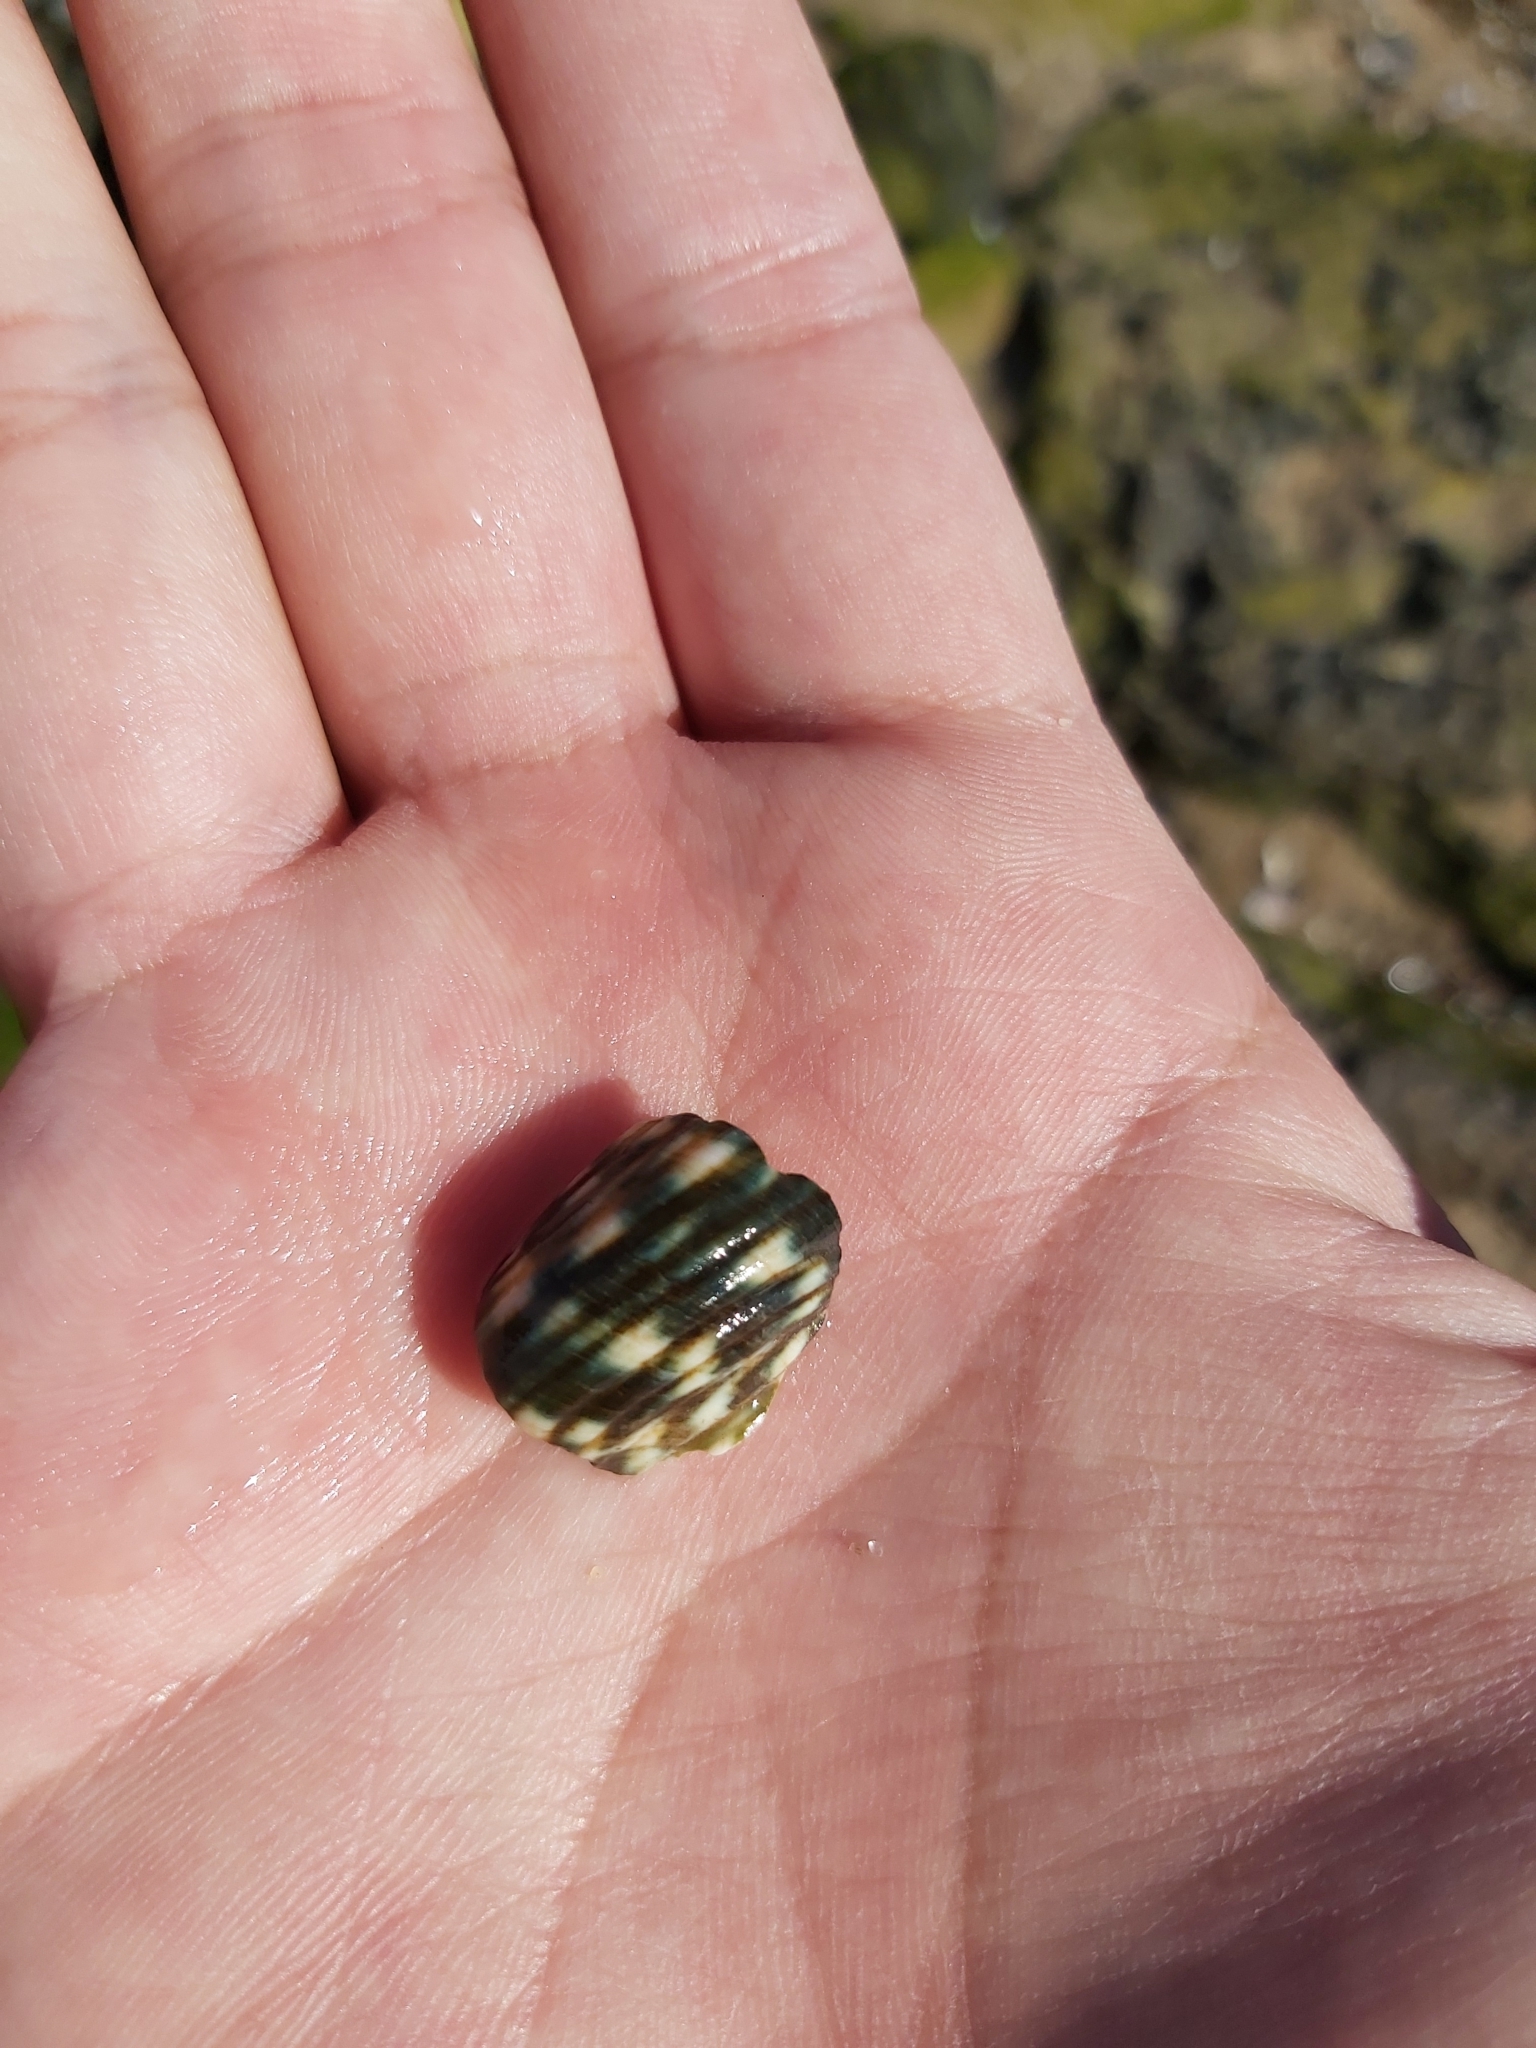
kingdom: Animalia
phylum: Mollusca
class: Gastropoda
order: Trochida
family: Turbinidae
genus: Lunella
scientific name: Lunella undulata
